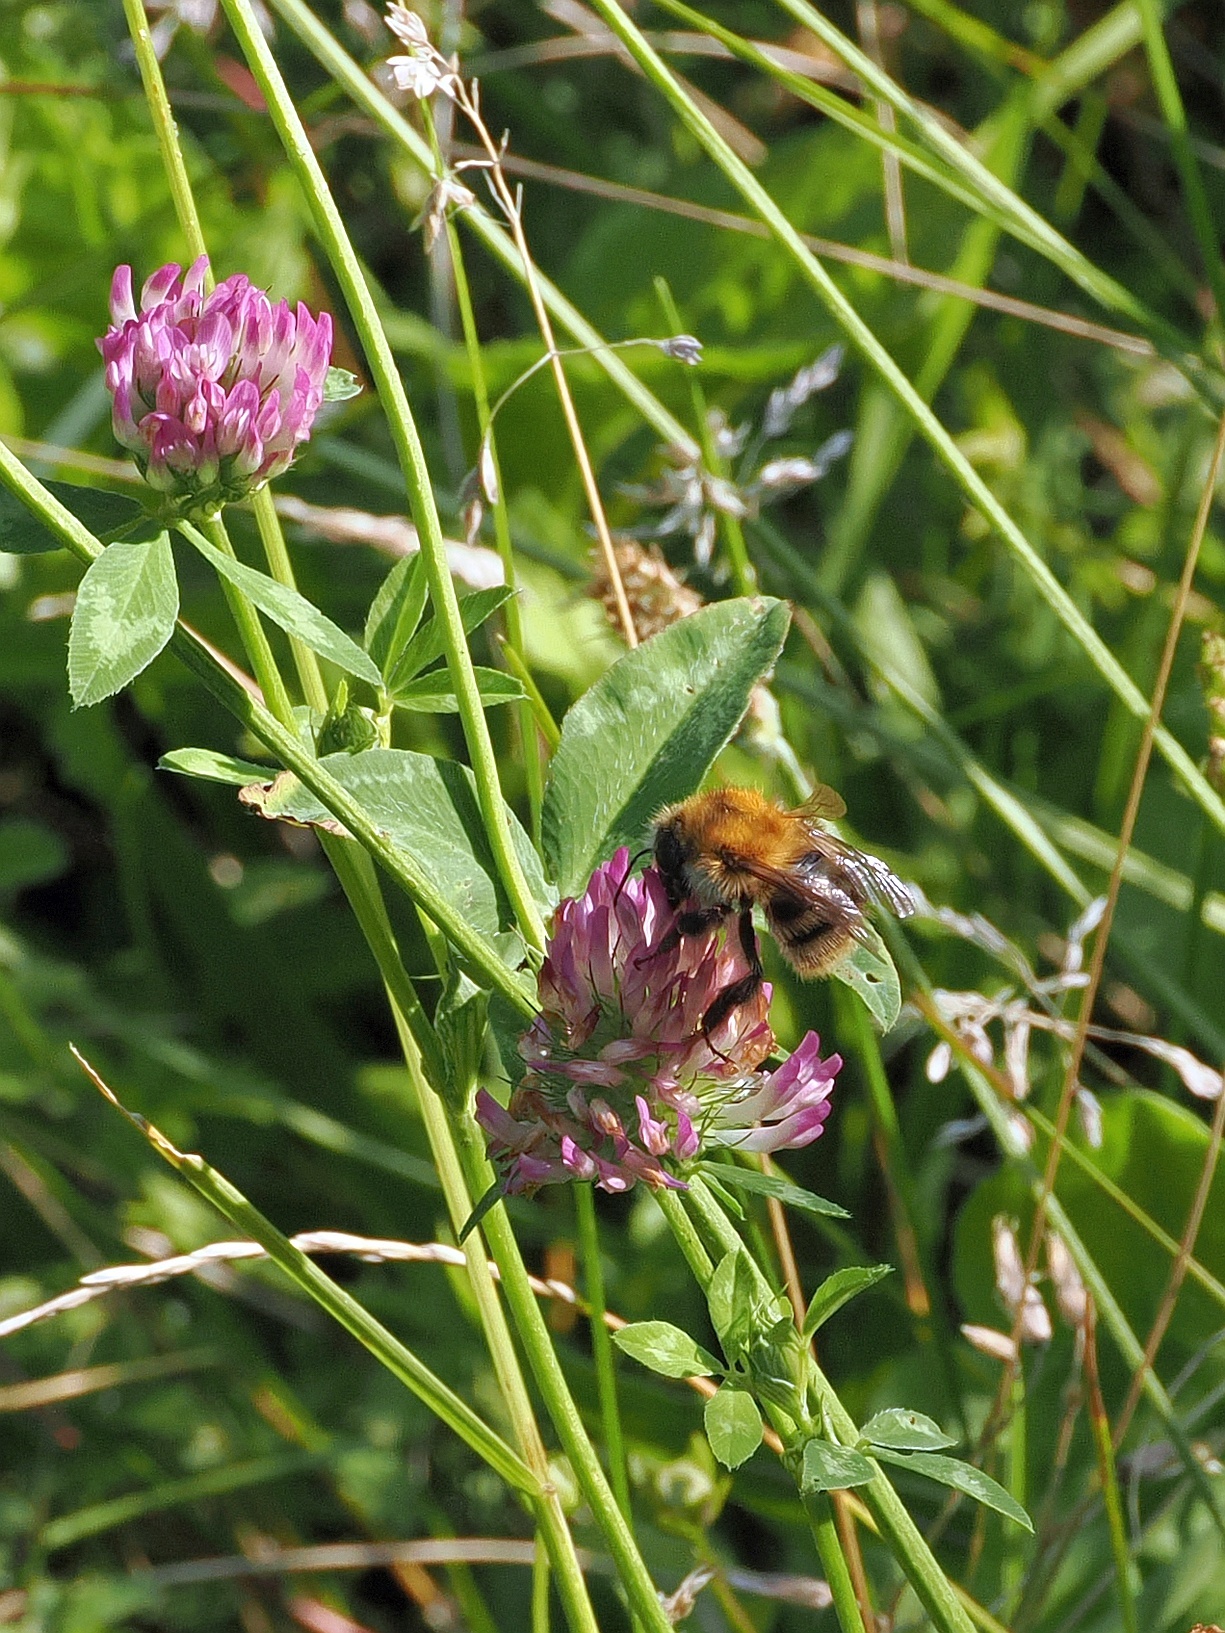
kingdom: Animalia
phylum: Arthropoda
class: Insecta
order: Hymenoptera
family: Apidae
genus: Bombus
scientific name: Bombus pascuorum
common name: Common carder bee
